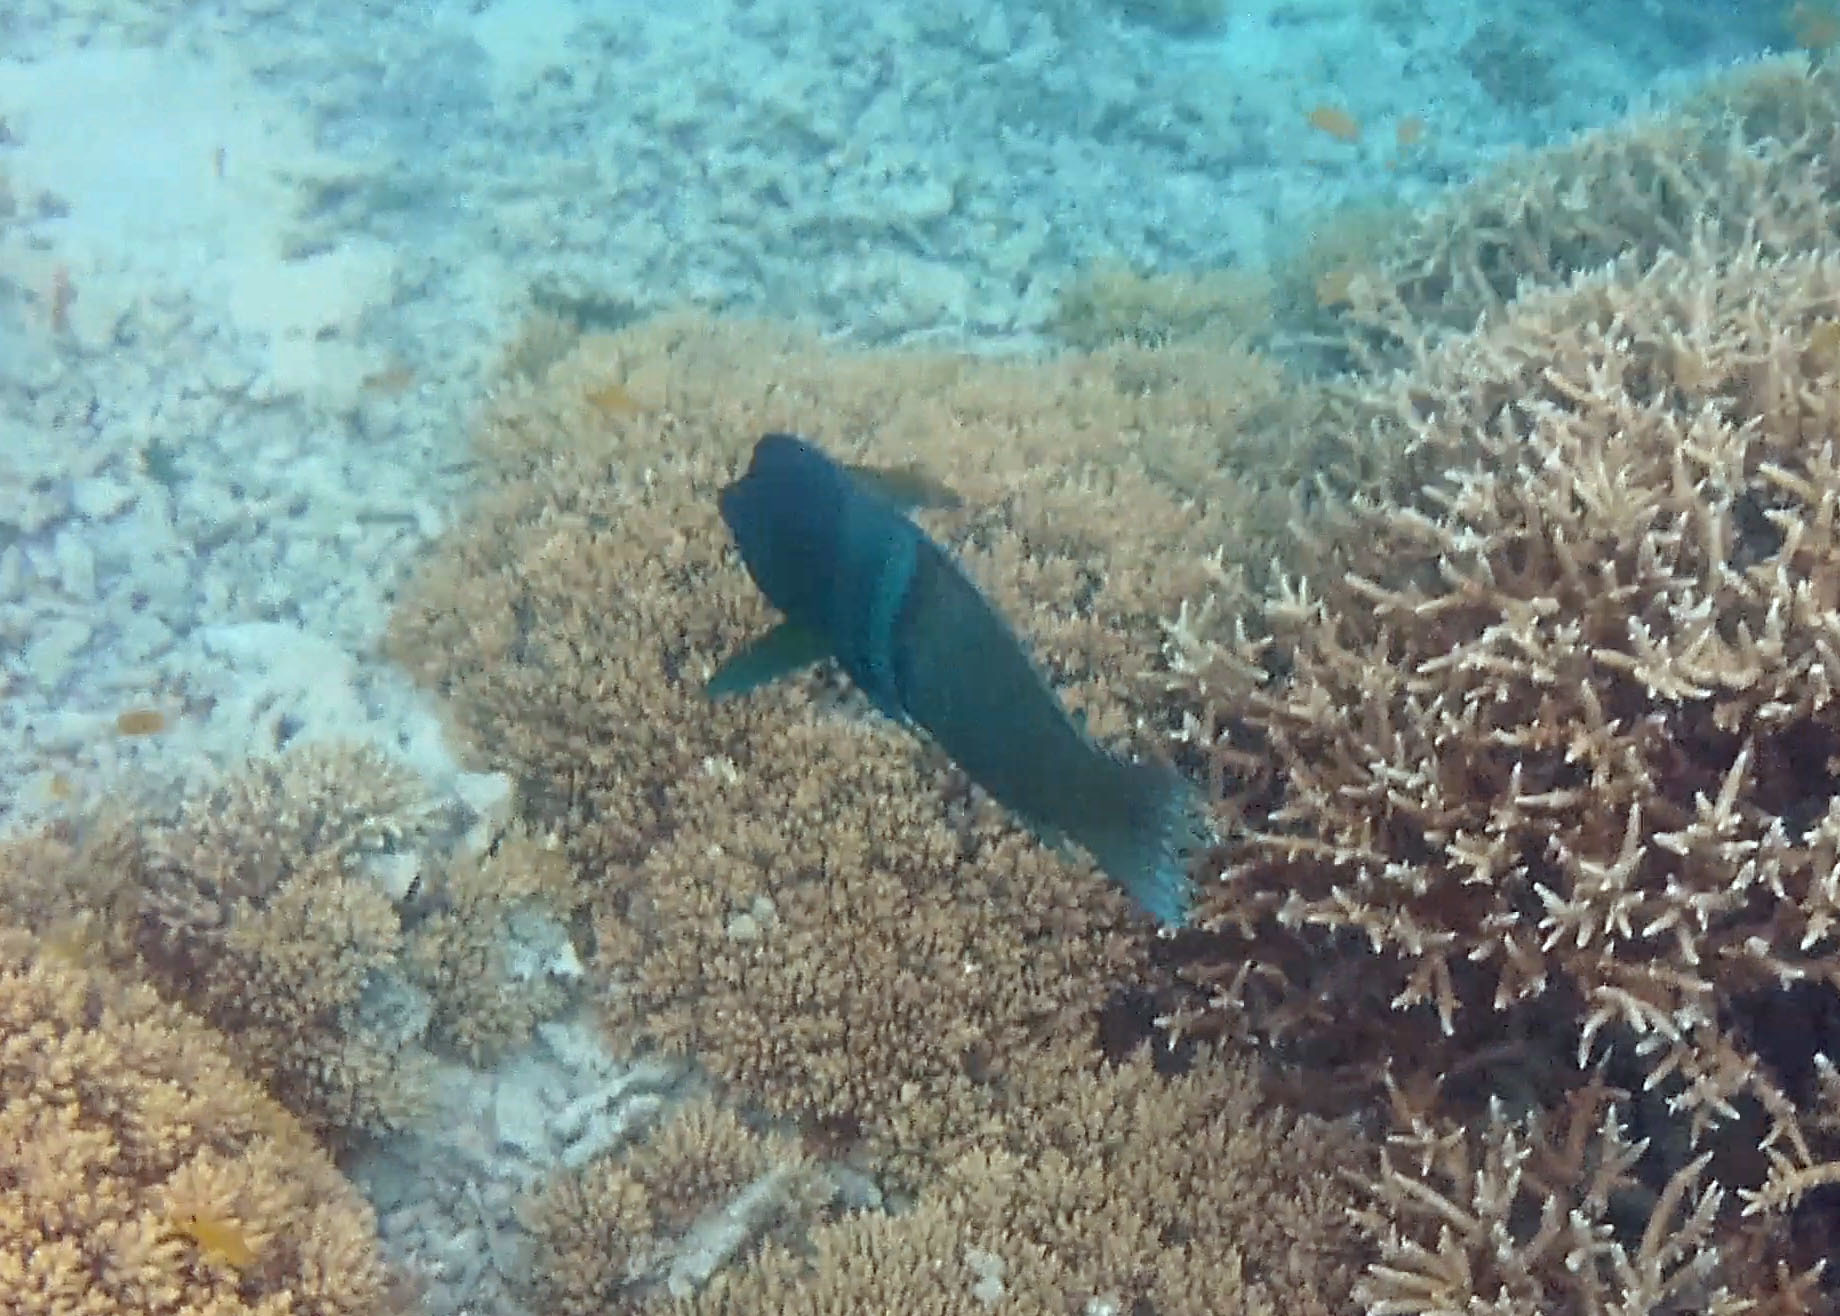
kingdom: Animalia
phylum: Chordata
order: Perciformes
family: Labridae
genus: Coris
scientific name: Coris aygula
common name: Clown coris
